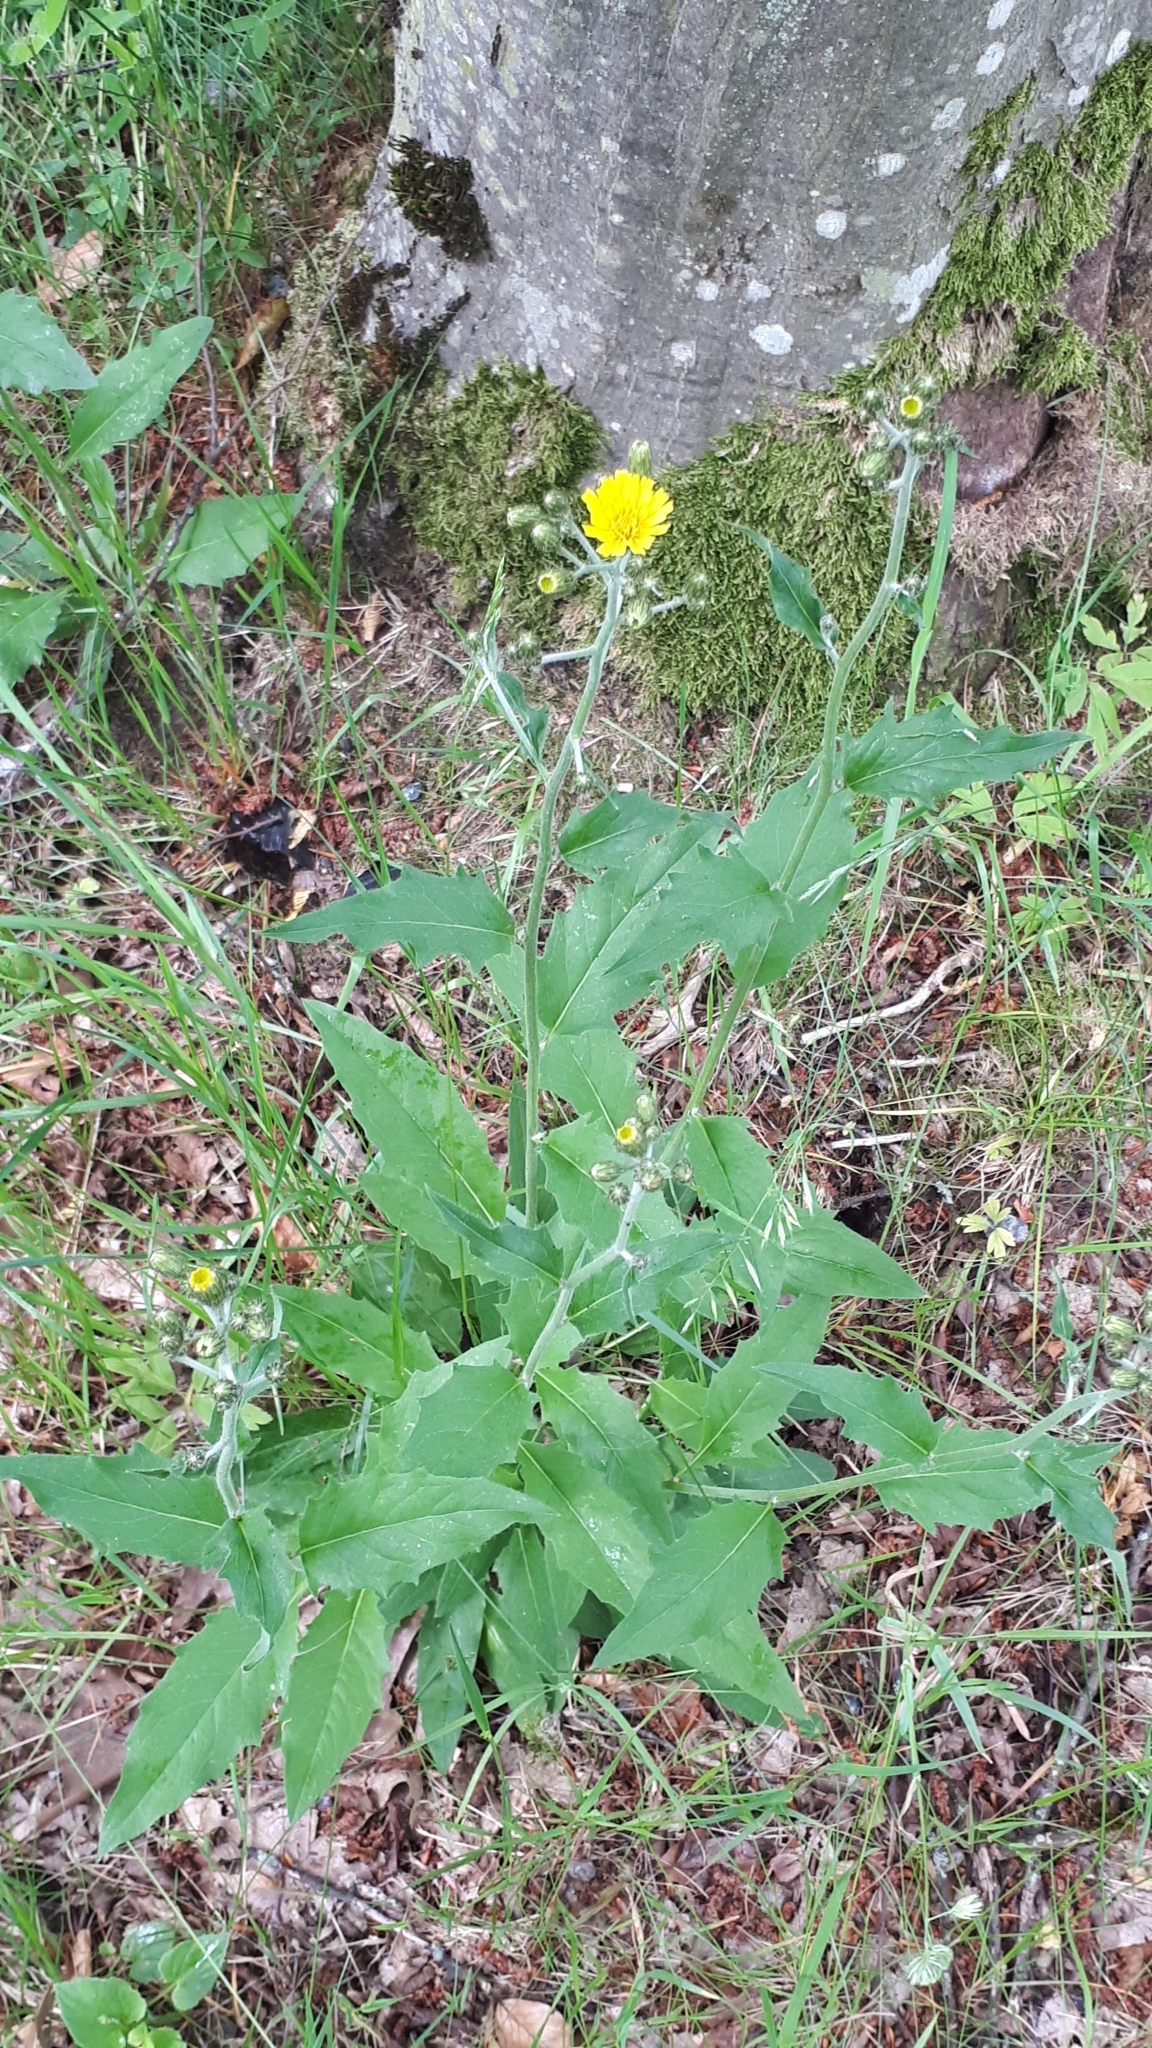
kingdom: Plantae
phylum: Tracheophyta
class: Magnoliopsida
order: Asterales
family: Asteraceae
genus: Hieracium
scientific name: Hieracium sabaudum
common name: New england hawkweed
